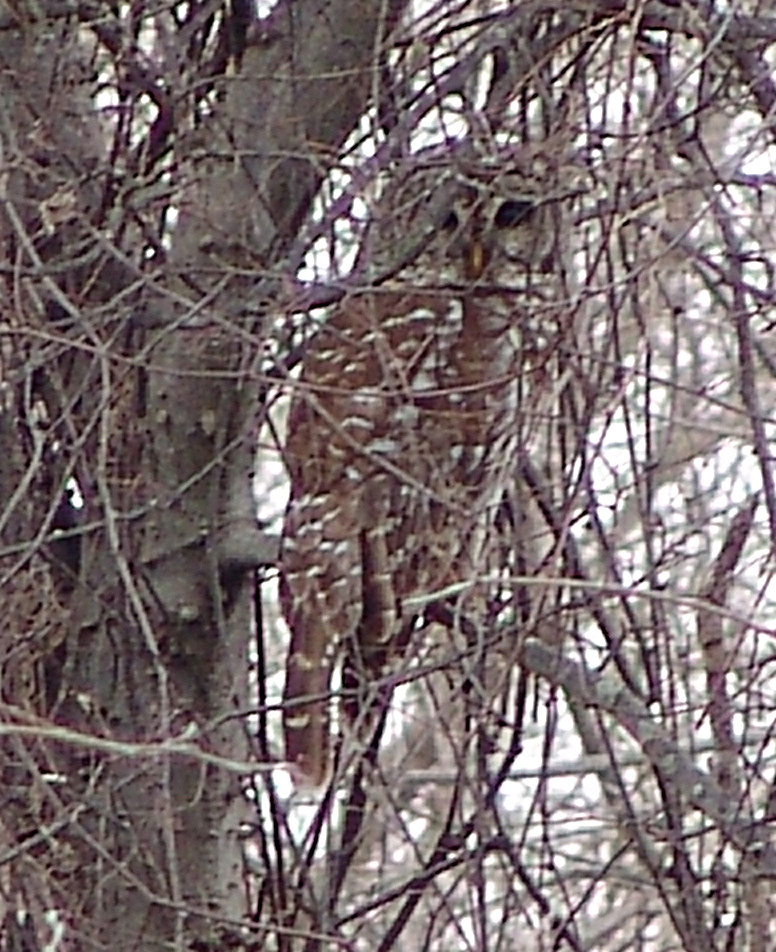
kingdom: Animalia
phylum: Chordata
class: Aves
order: Strigiformes
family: Strigidae
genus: Strix
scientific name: Strix varia
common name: Barred owl
